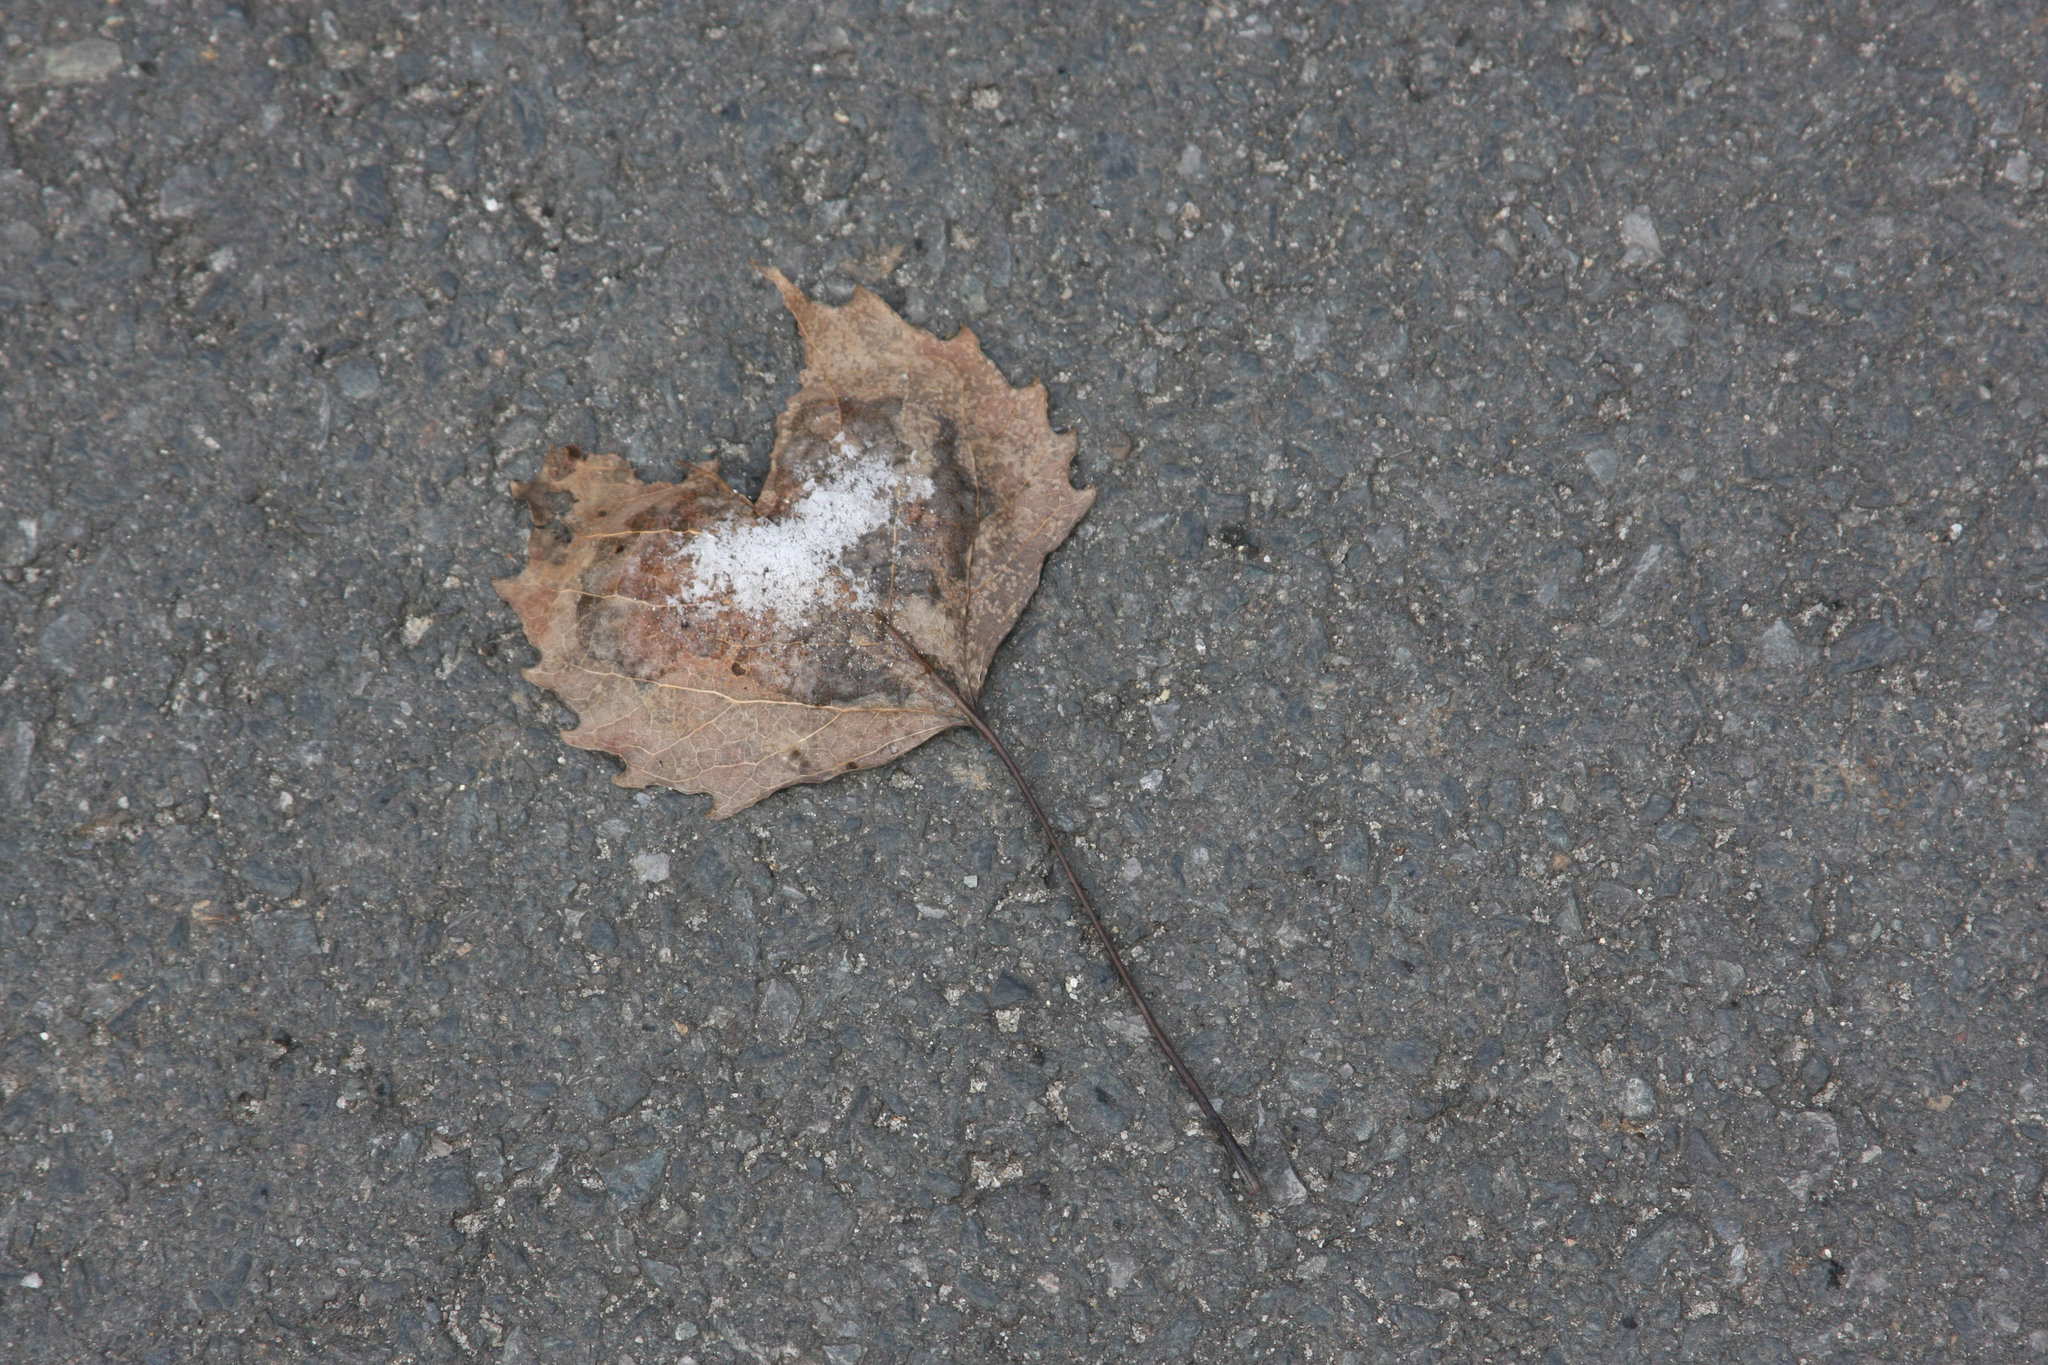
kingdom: Plantae
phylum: Tracheophyta
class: Magnoliopsida
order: Malpighiales
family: Salicaceae
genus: Populus
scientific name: Populus grandidentata
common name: Bigtooth aspen
